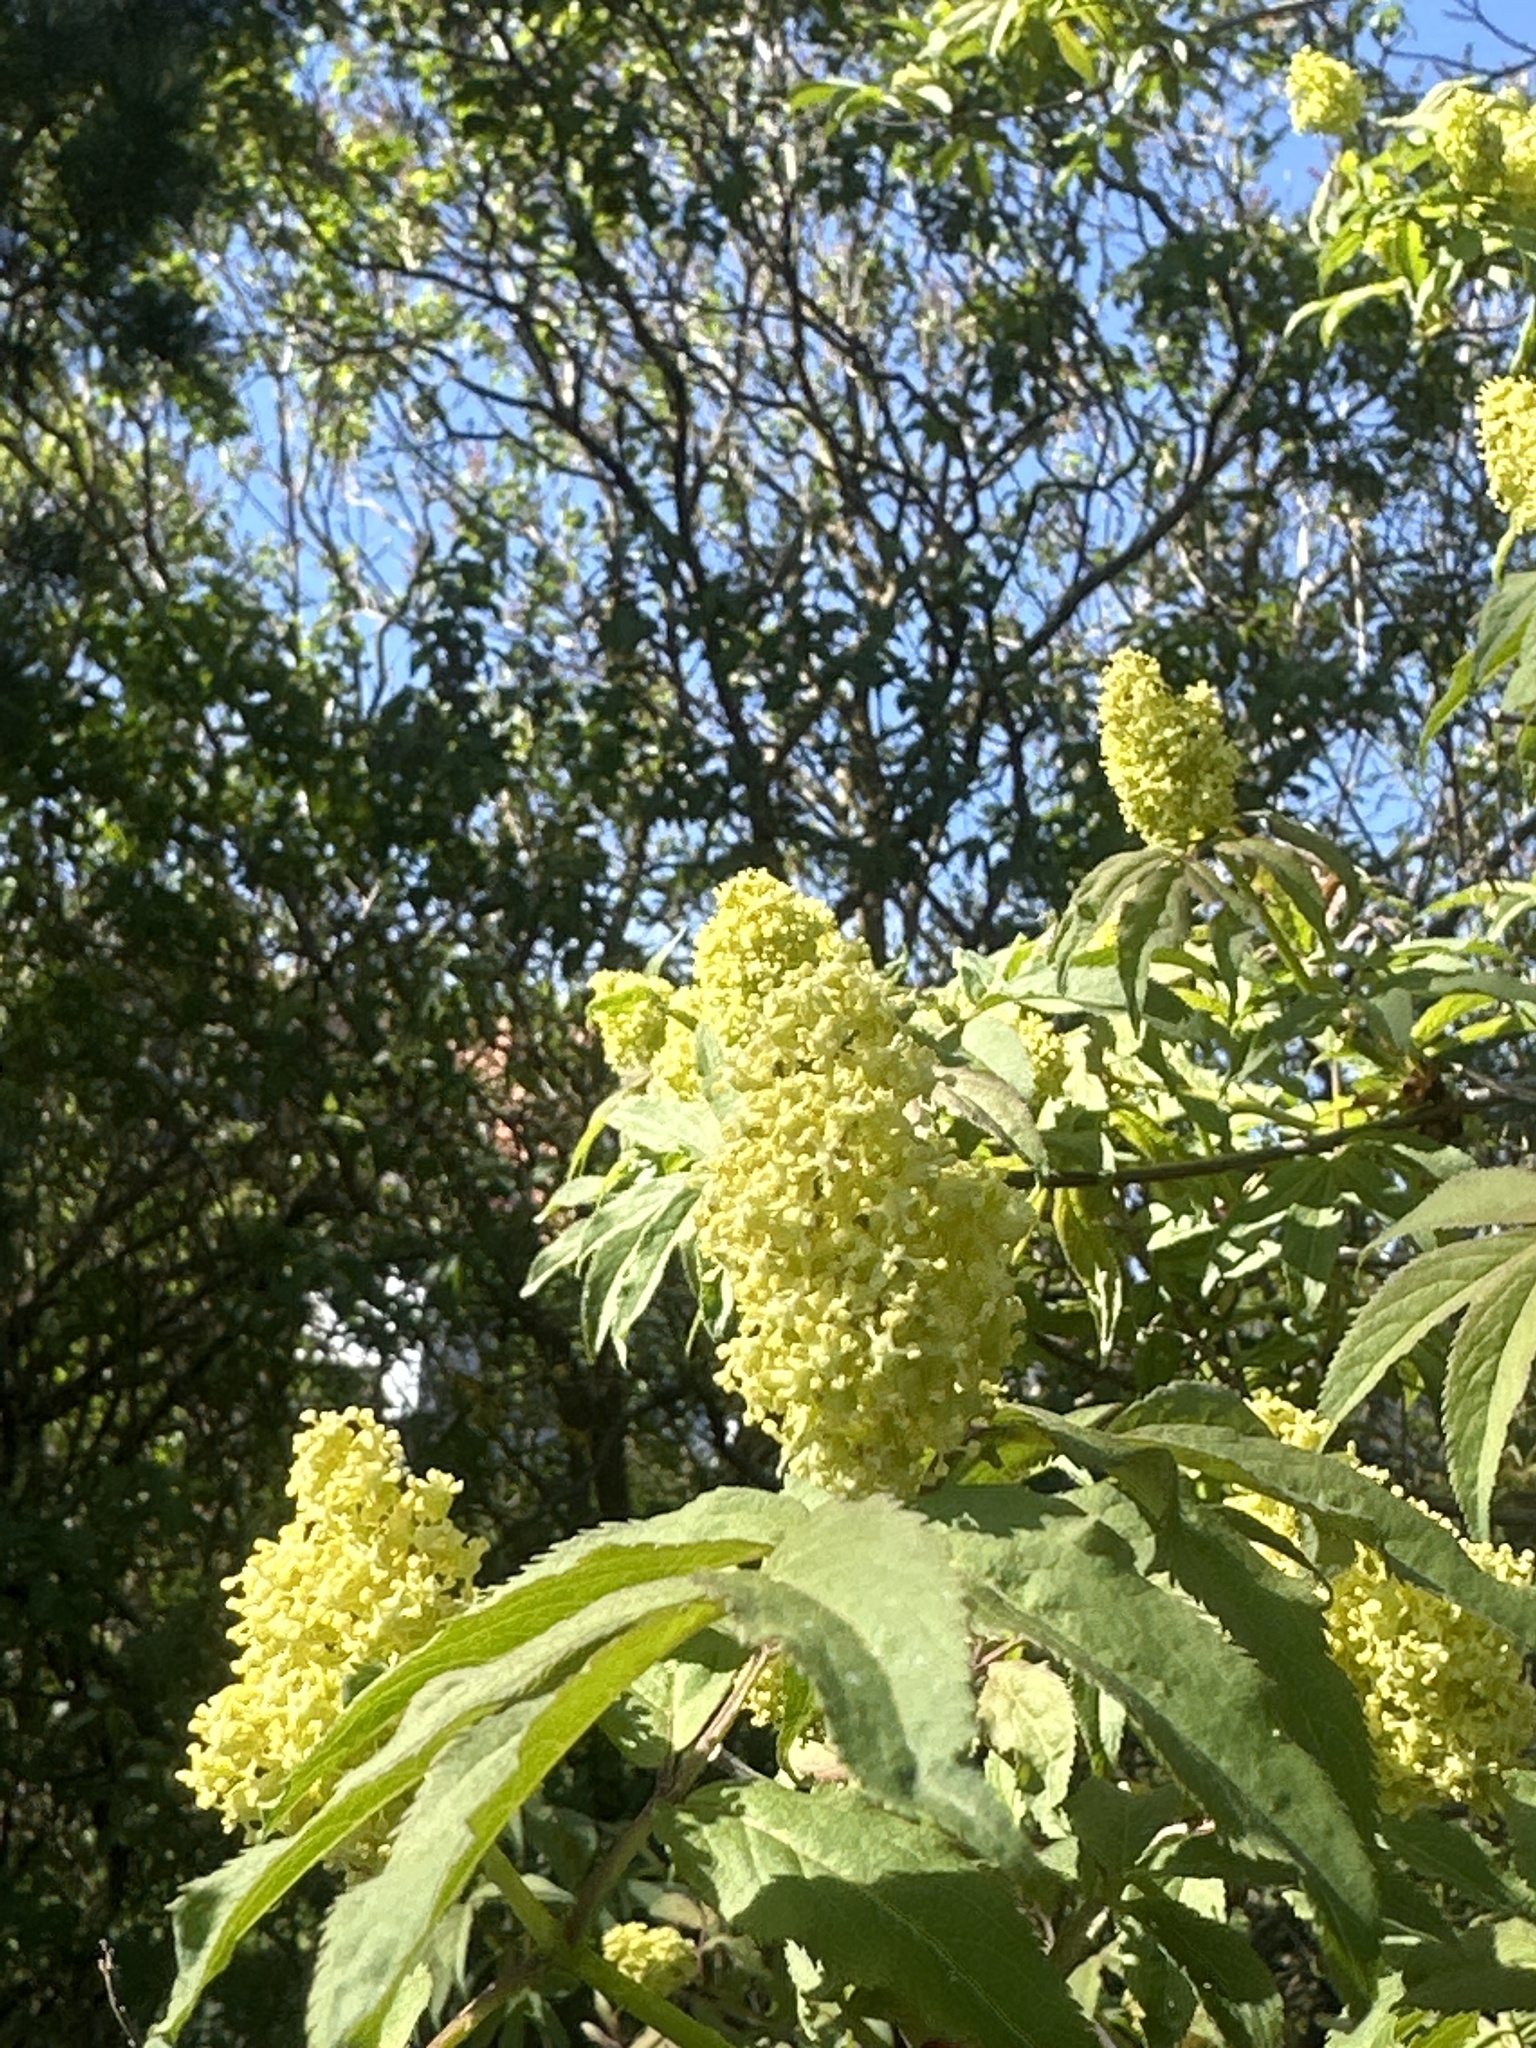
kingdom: Plantae
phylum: Tracheophyta
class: Magnoliopsida
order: Dipsacales
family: Viburnaceae
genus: Sambucus
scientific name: Sambucus racemosa
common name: Red-berried elder
